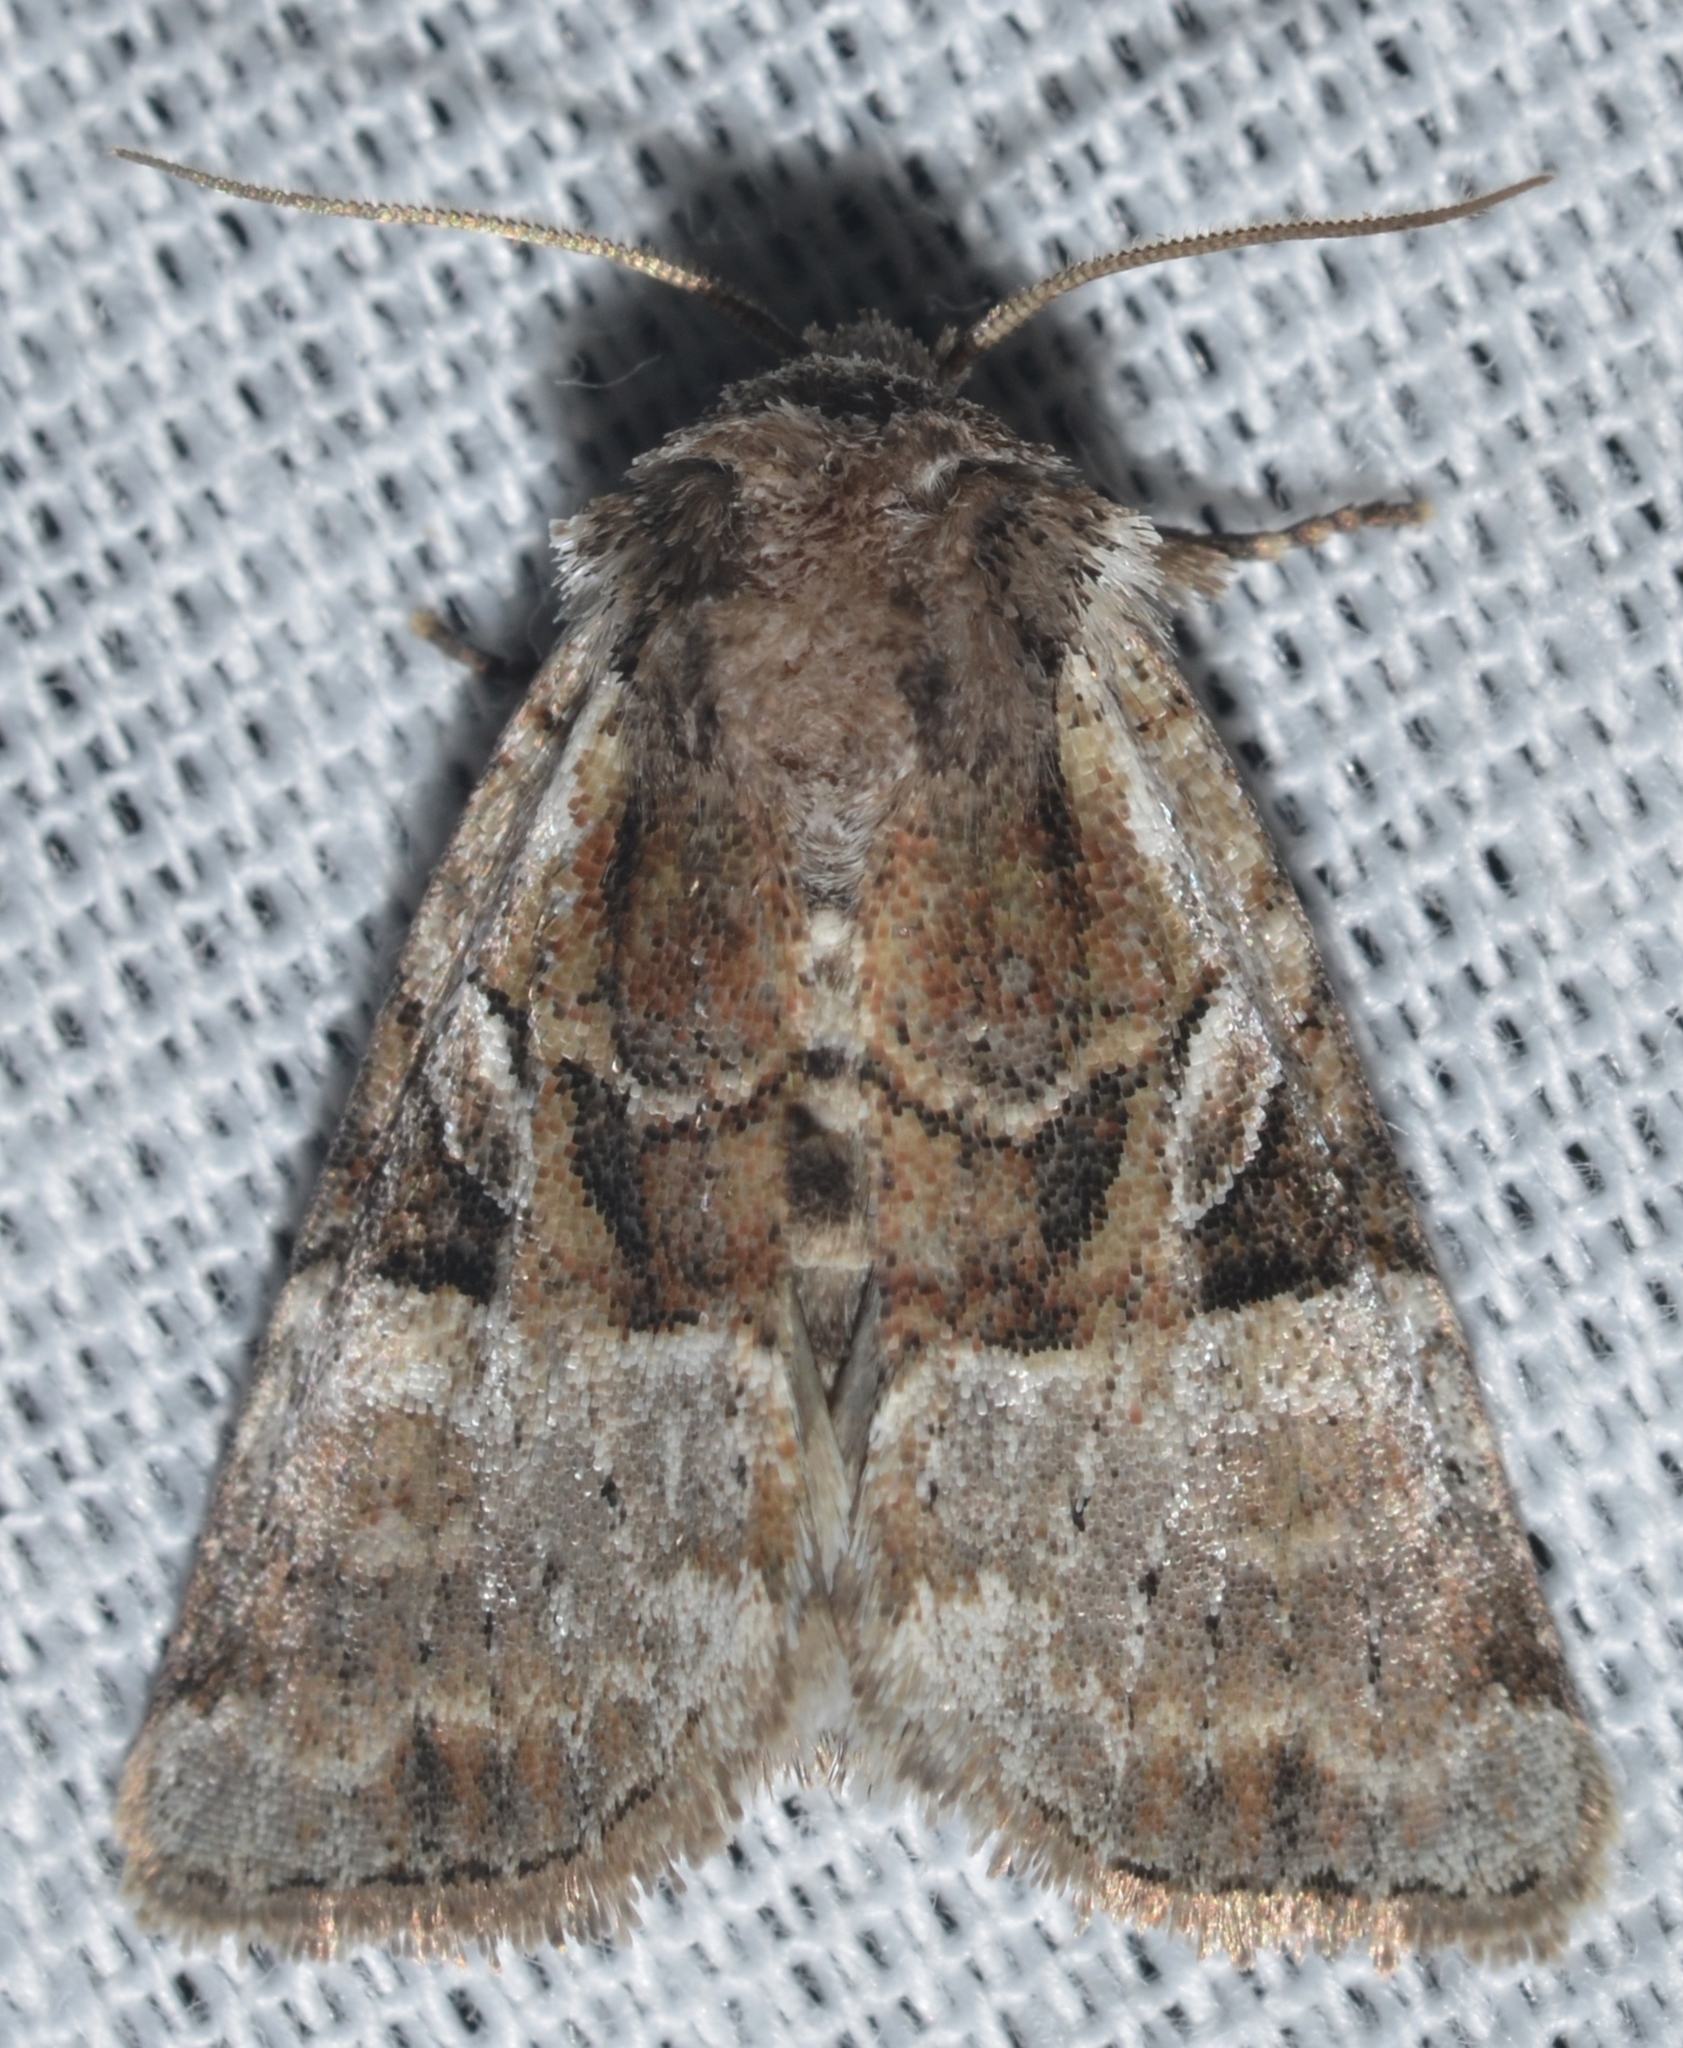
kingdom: Animalia
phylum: Arthropoda
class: Insecta
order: Lepidoptera
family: Noctuidae
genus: Meropleon
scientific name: Meropleon diversicolor
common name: Multicolored sedgeminer moth
